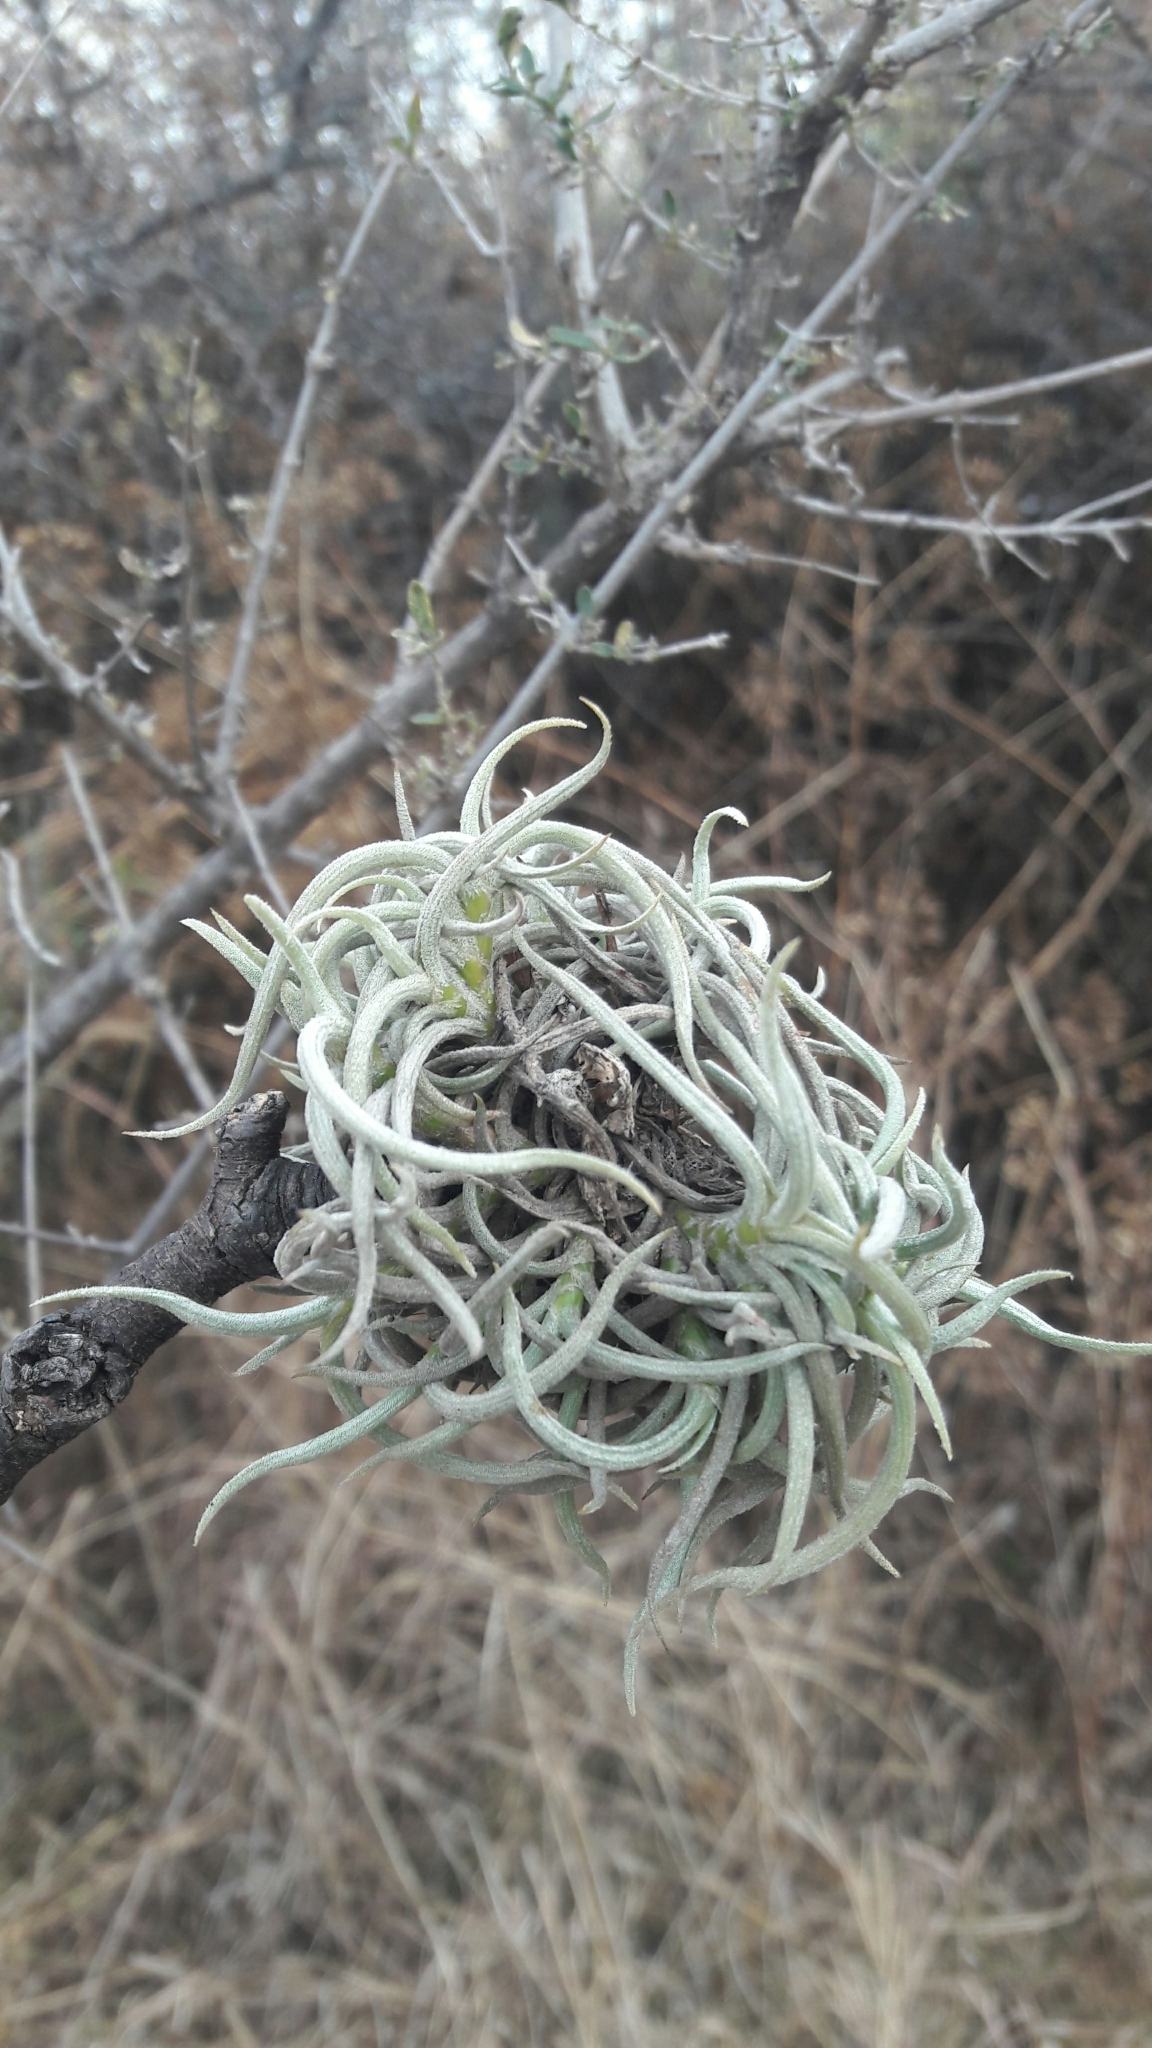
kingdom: Plantae
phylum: Tracheophyta
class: Liliopsida
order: Poales
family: Bromeliaceae
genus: Tillandsia
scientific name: Tillandsia myosura
